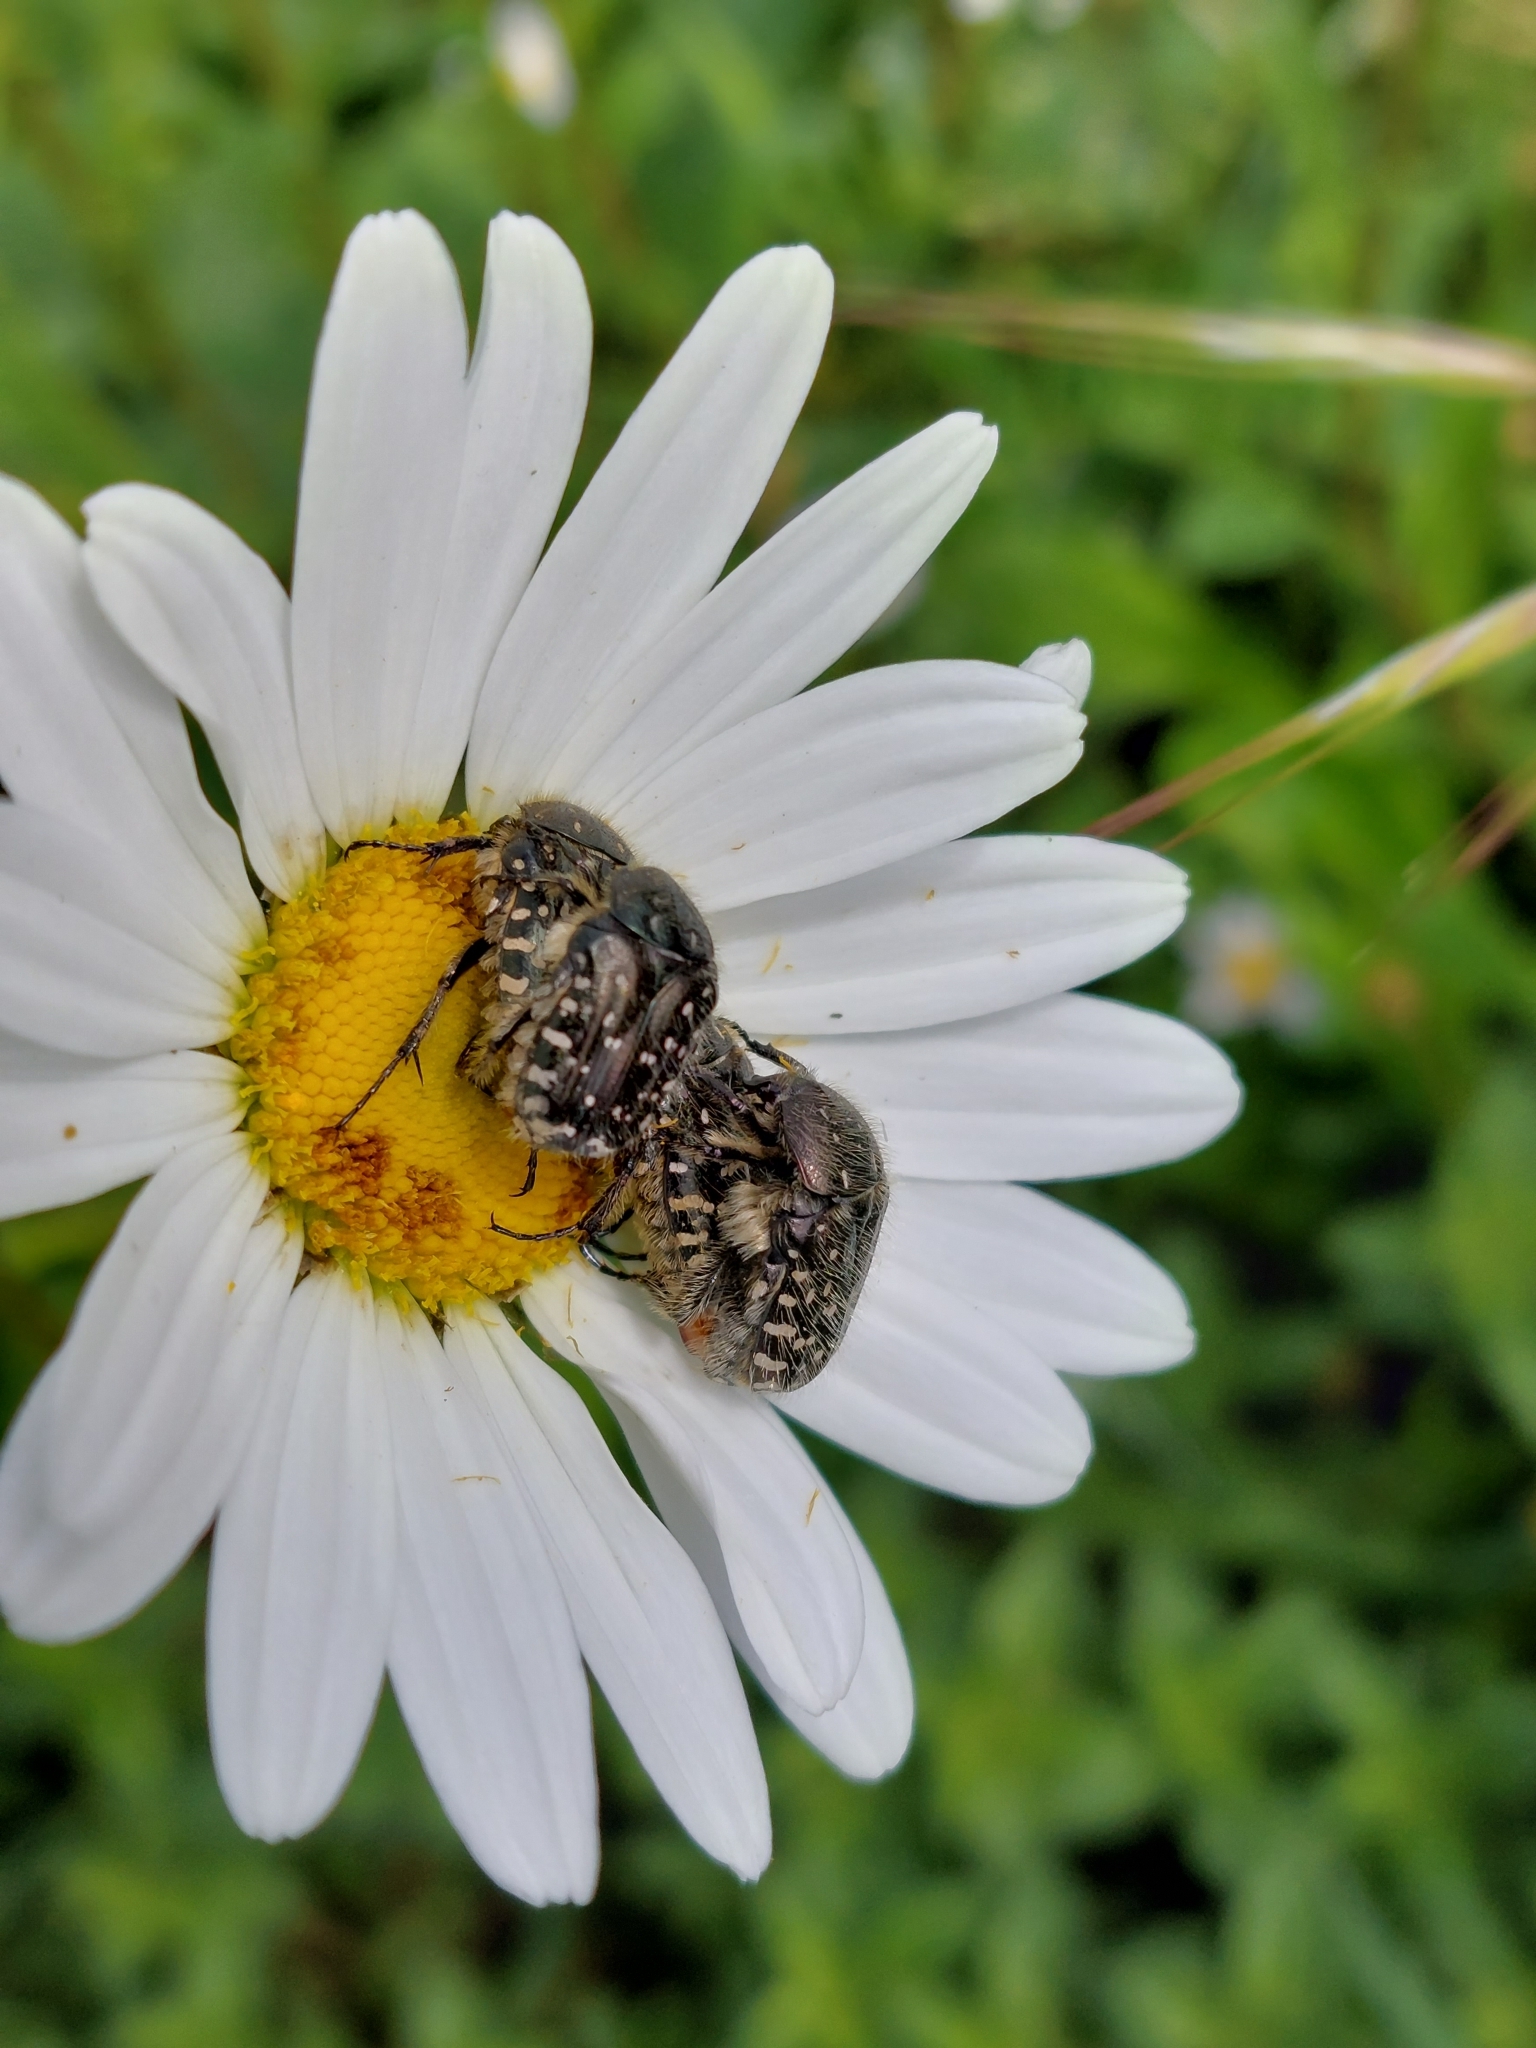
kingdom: Animalia
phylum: Arthropoda
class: Insecta
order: Coleoptera
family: Scarabaeidae
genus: Oxythyrea
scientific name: Oxythyrea funesta
